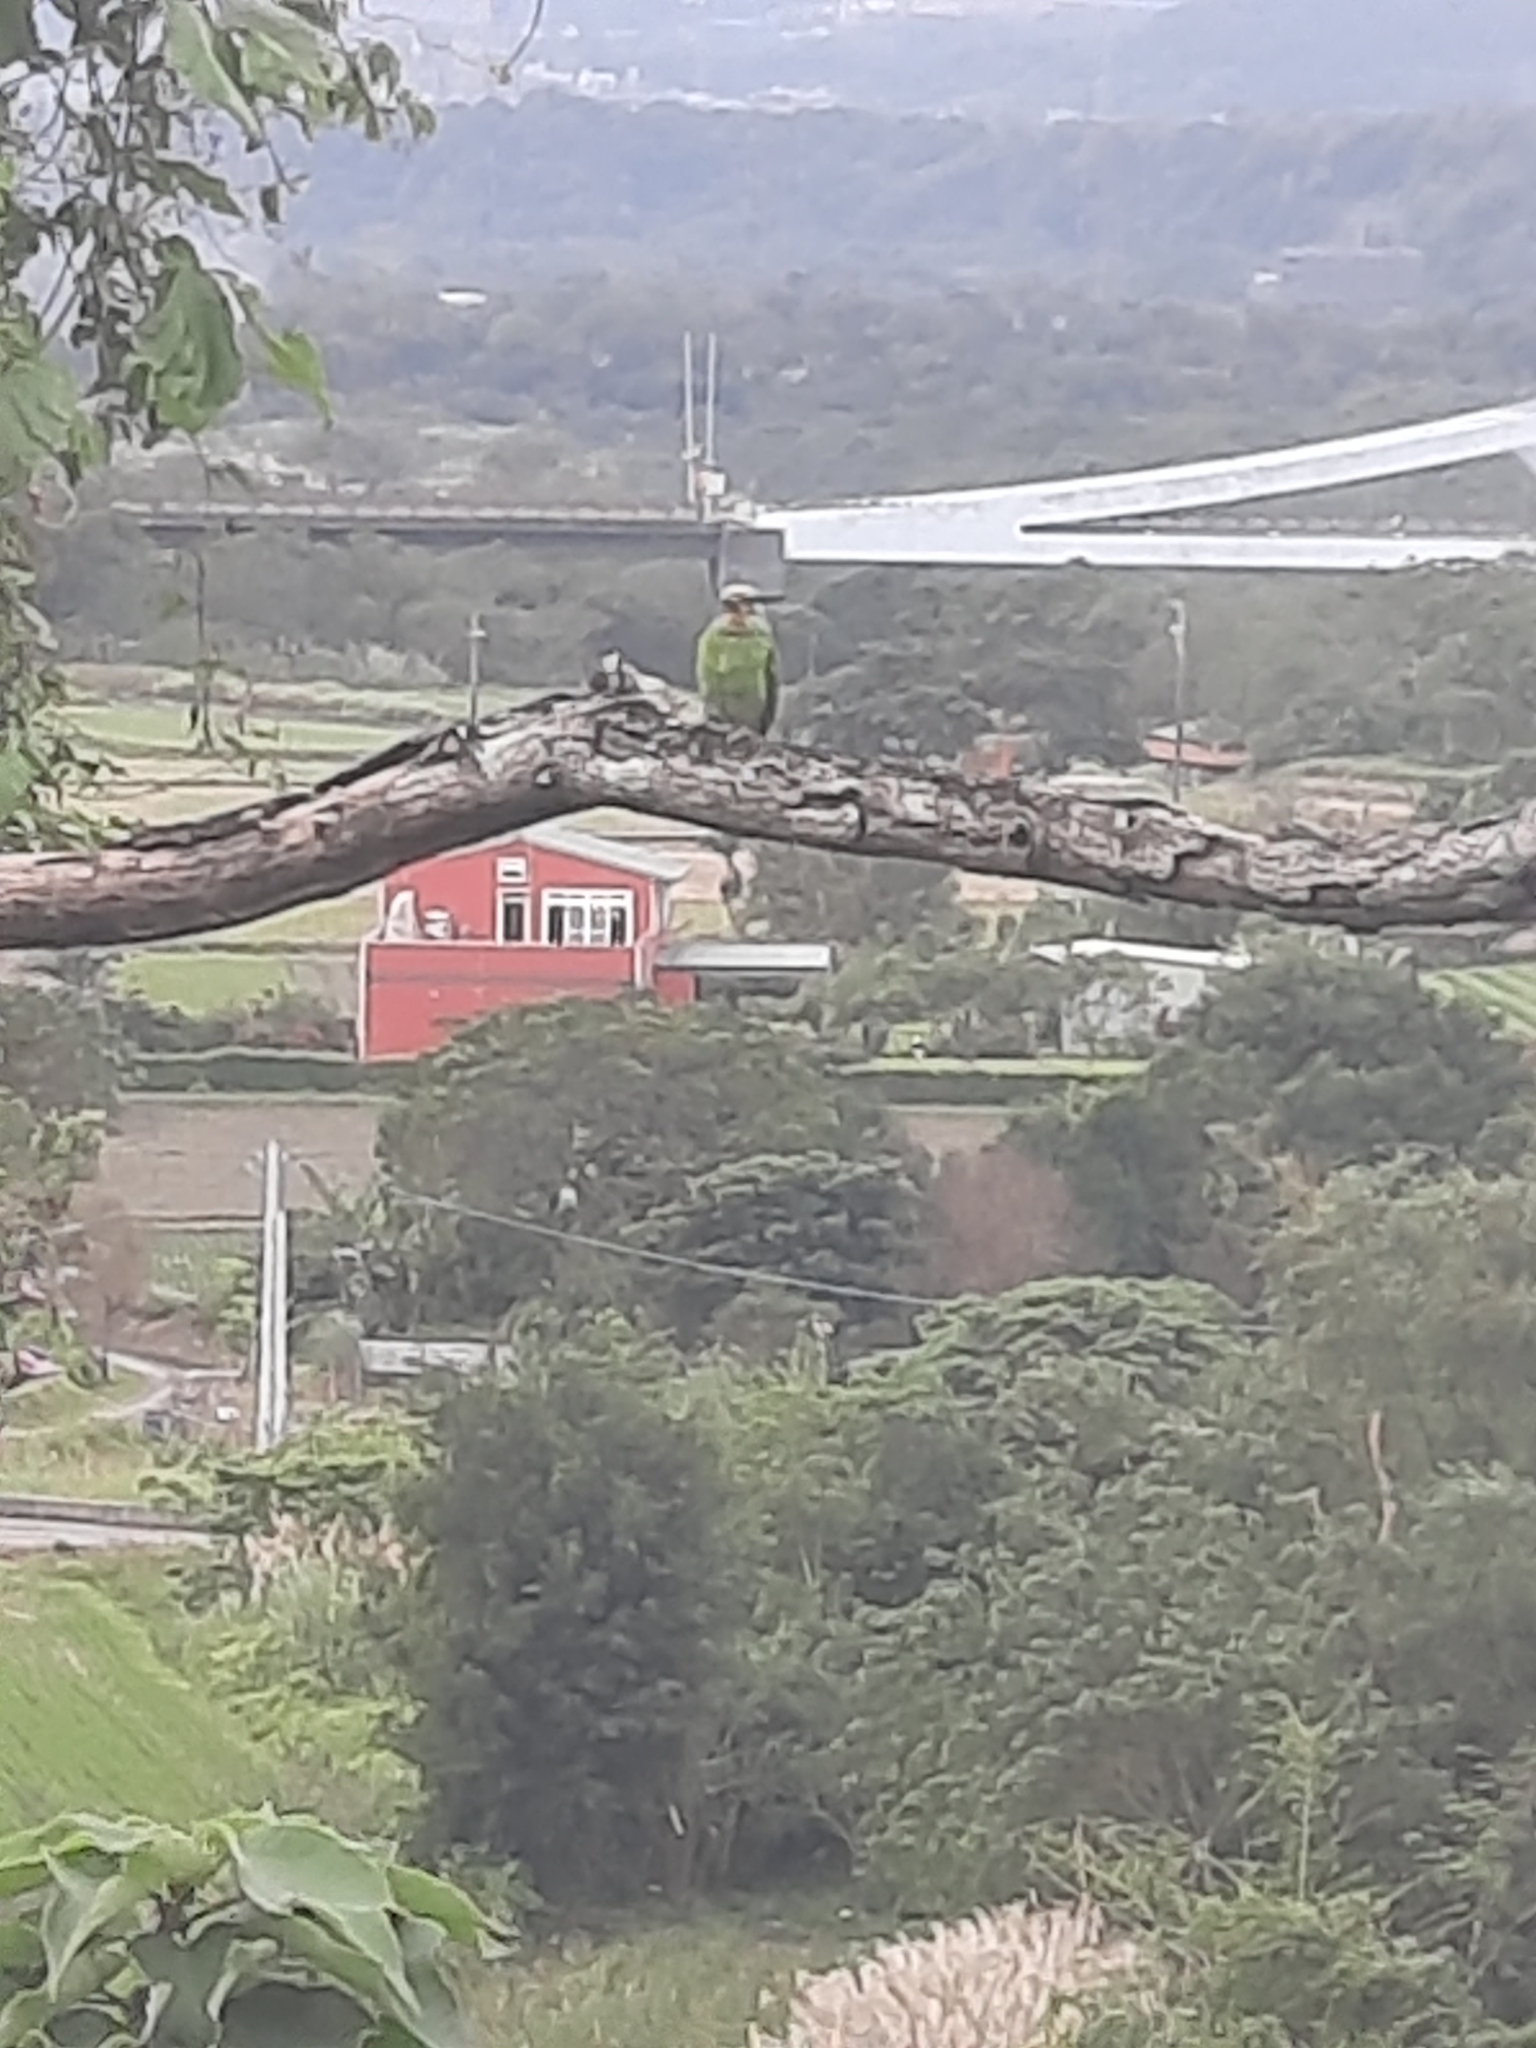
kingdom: Animalia
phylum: Chordata
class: Aves
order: Piciformes
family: Megalaimidae
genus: Psilopogon
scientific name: Psilopogon nuchalis
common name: Taiwan barbet
